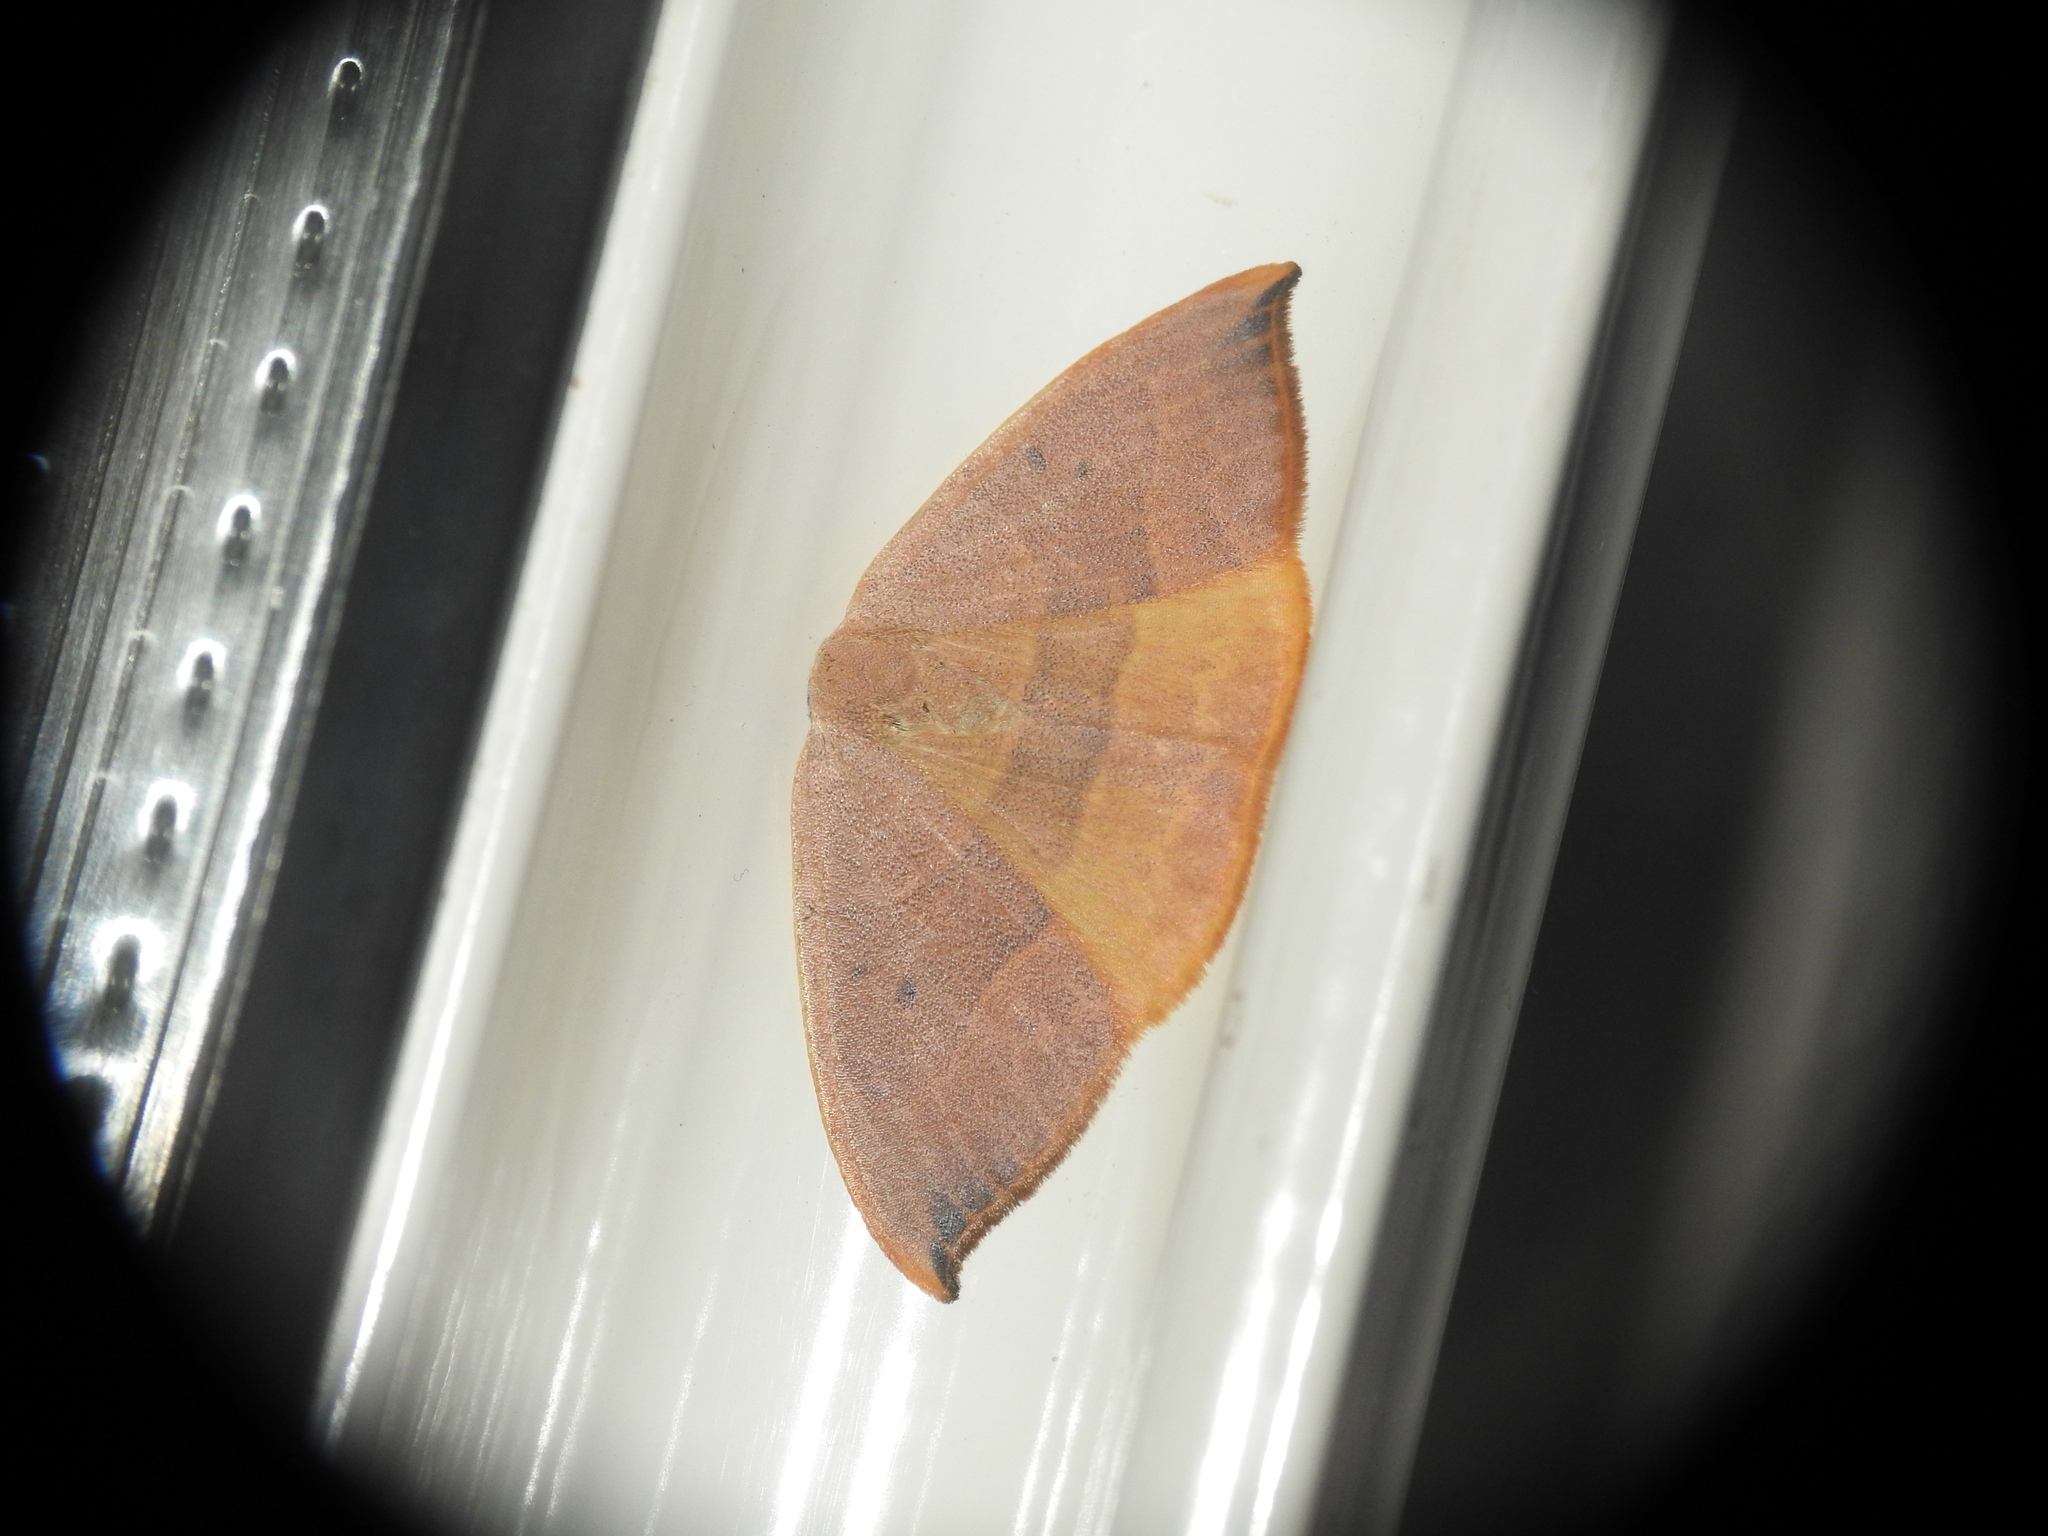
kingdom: Animalia
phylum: Arthropoda
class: Insecta
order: Lepidoptera
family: Drepanidae
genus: Watsonalla
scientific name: Watsonalla uncinula
